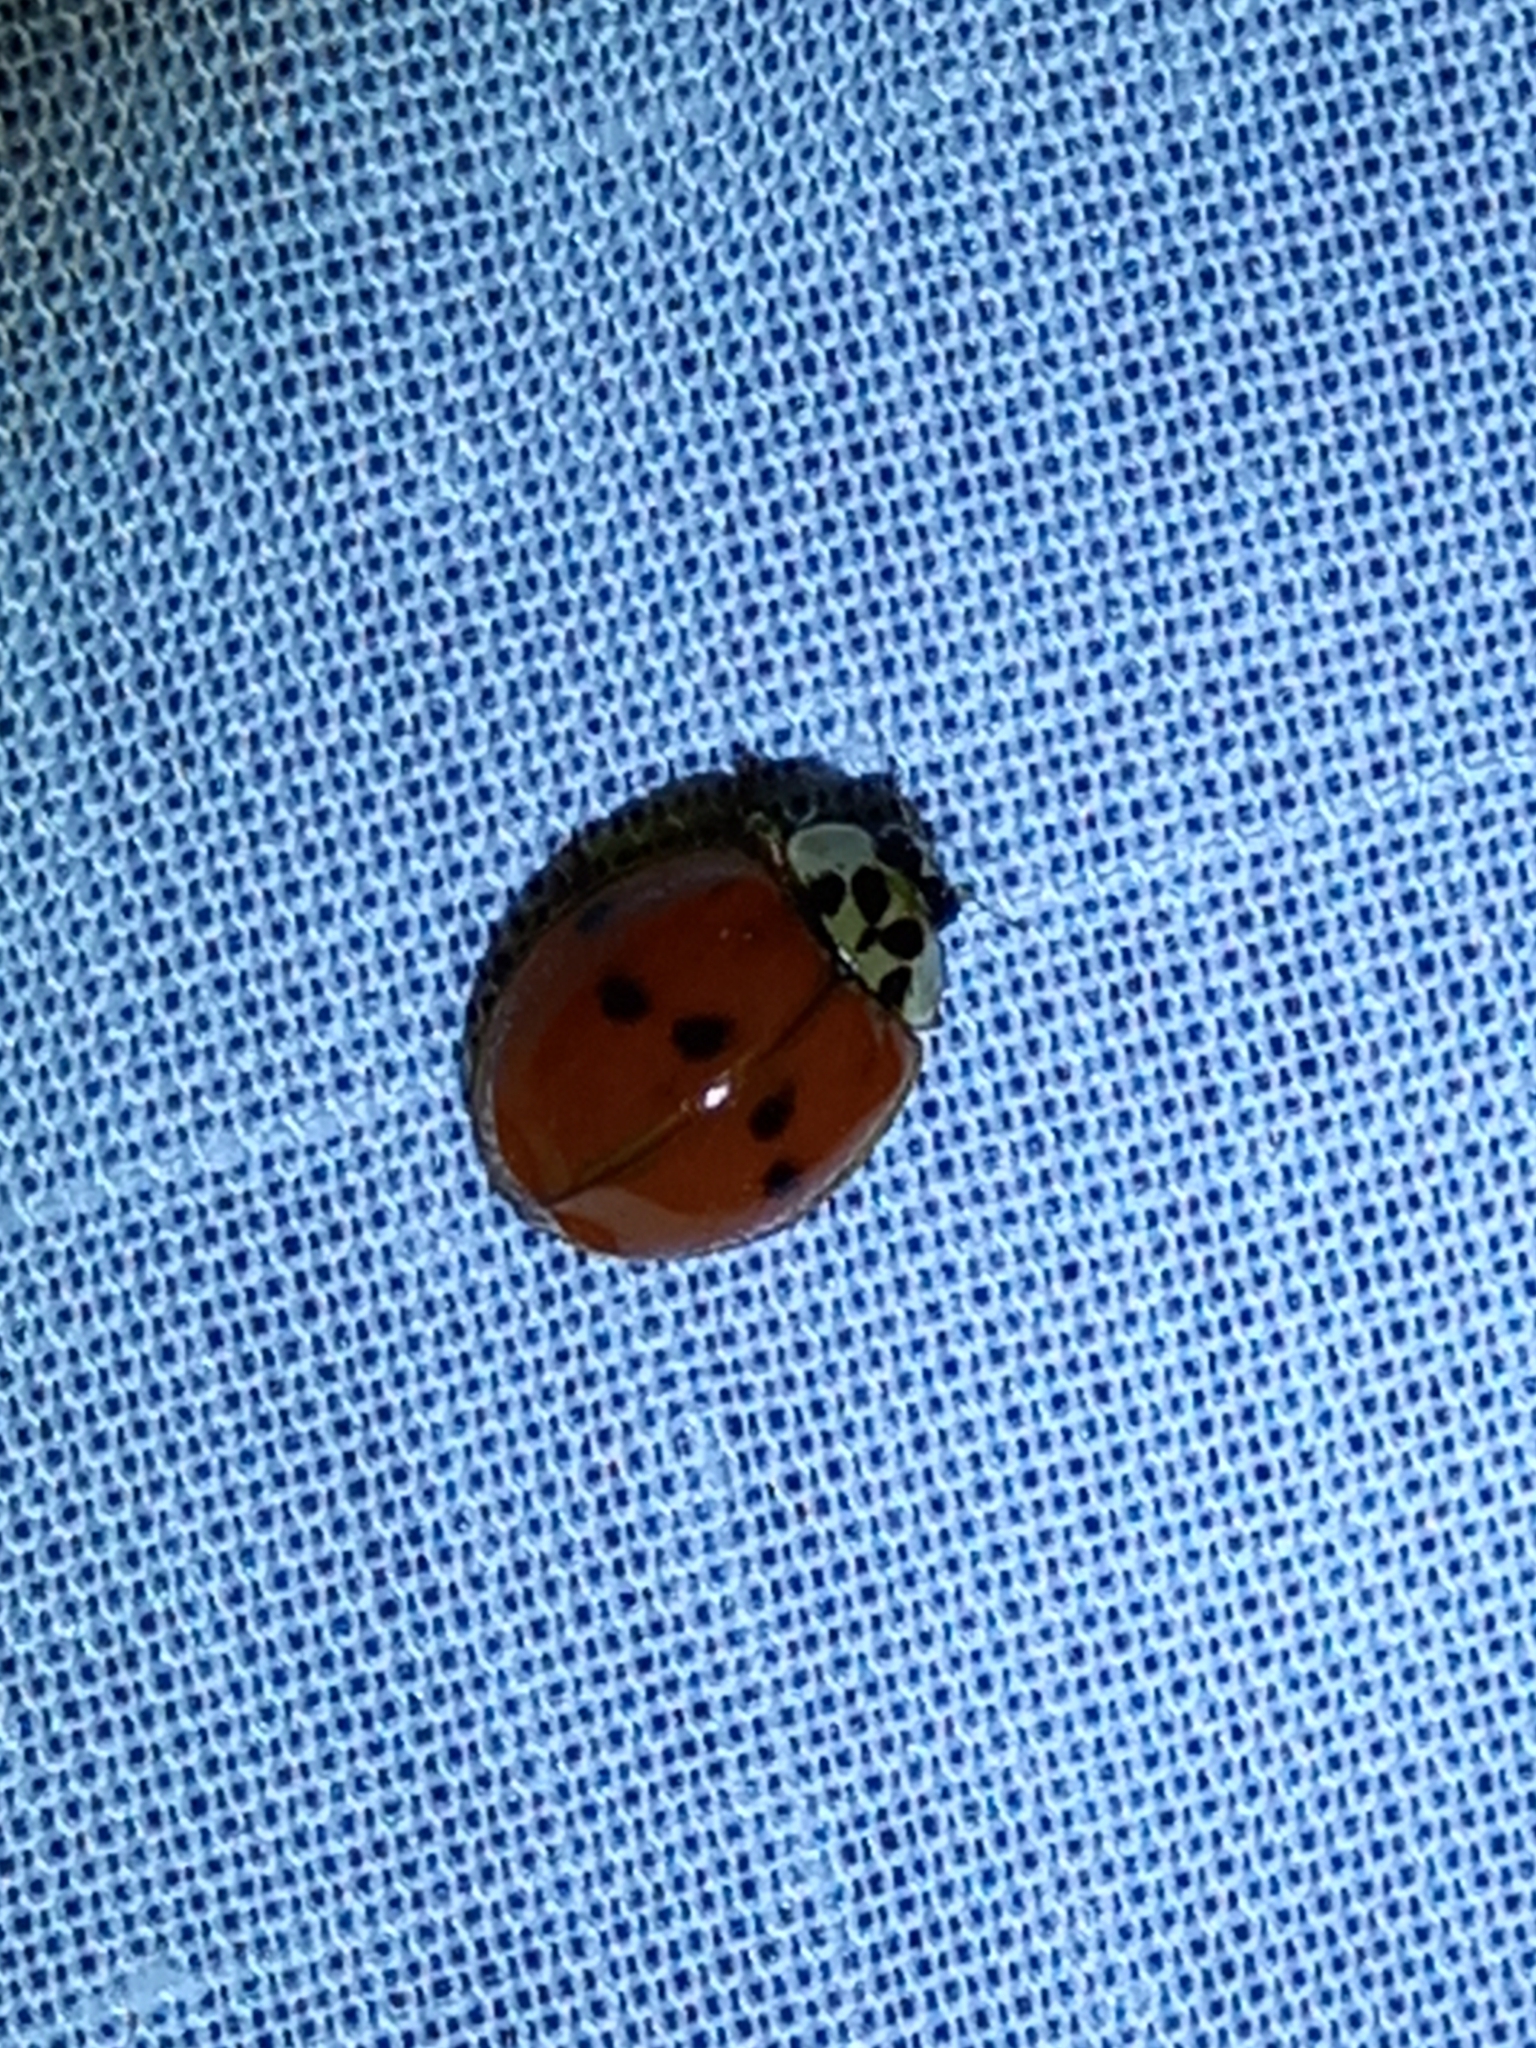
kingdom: Animalia
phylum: Arthropoda
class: Insecta
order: Coleoptera
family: Coccinellidae
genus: Harmonia
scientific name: Harmonia axyridis
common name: Harlequin ladybird
